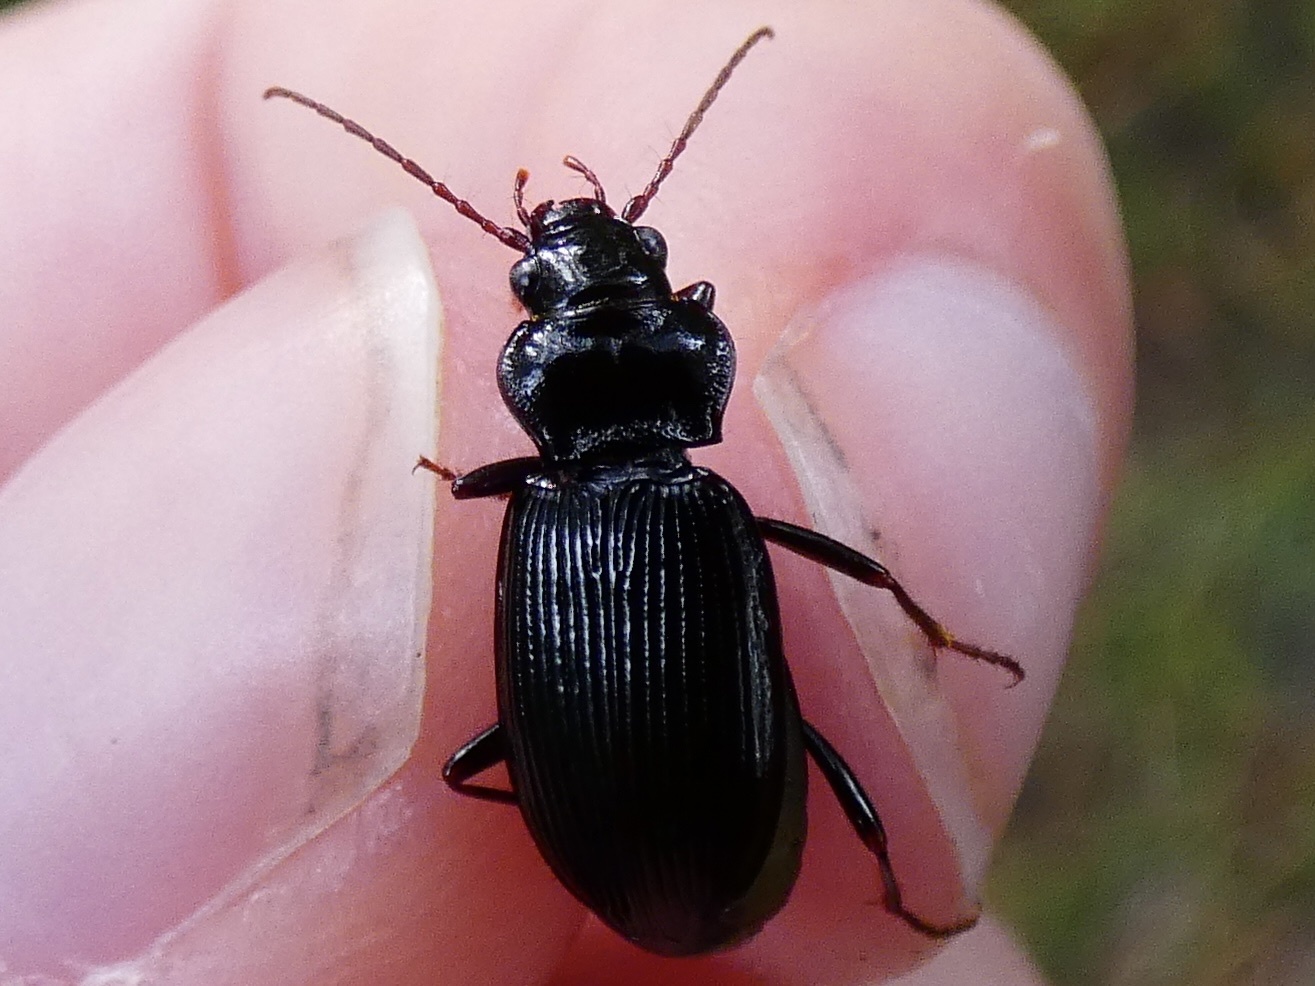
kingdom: Animalia
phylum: Arthropoda
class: Insecta
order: Coleoptera
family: Carabidae
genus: Nebria
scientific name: Nebria brevicollis
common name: Short-necked gazelle beetle
